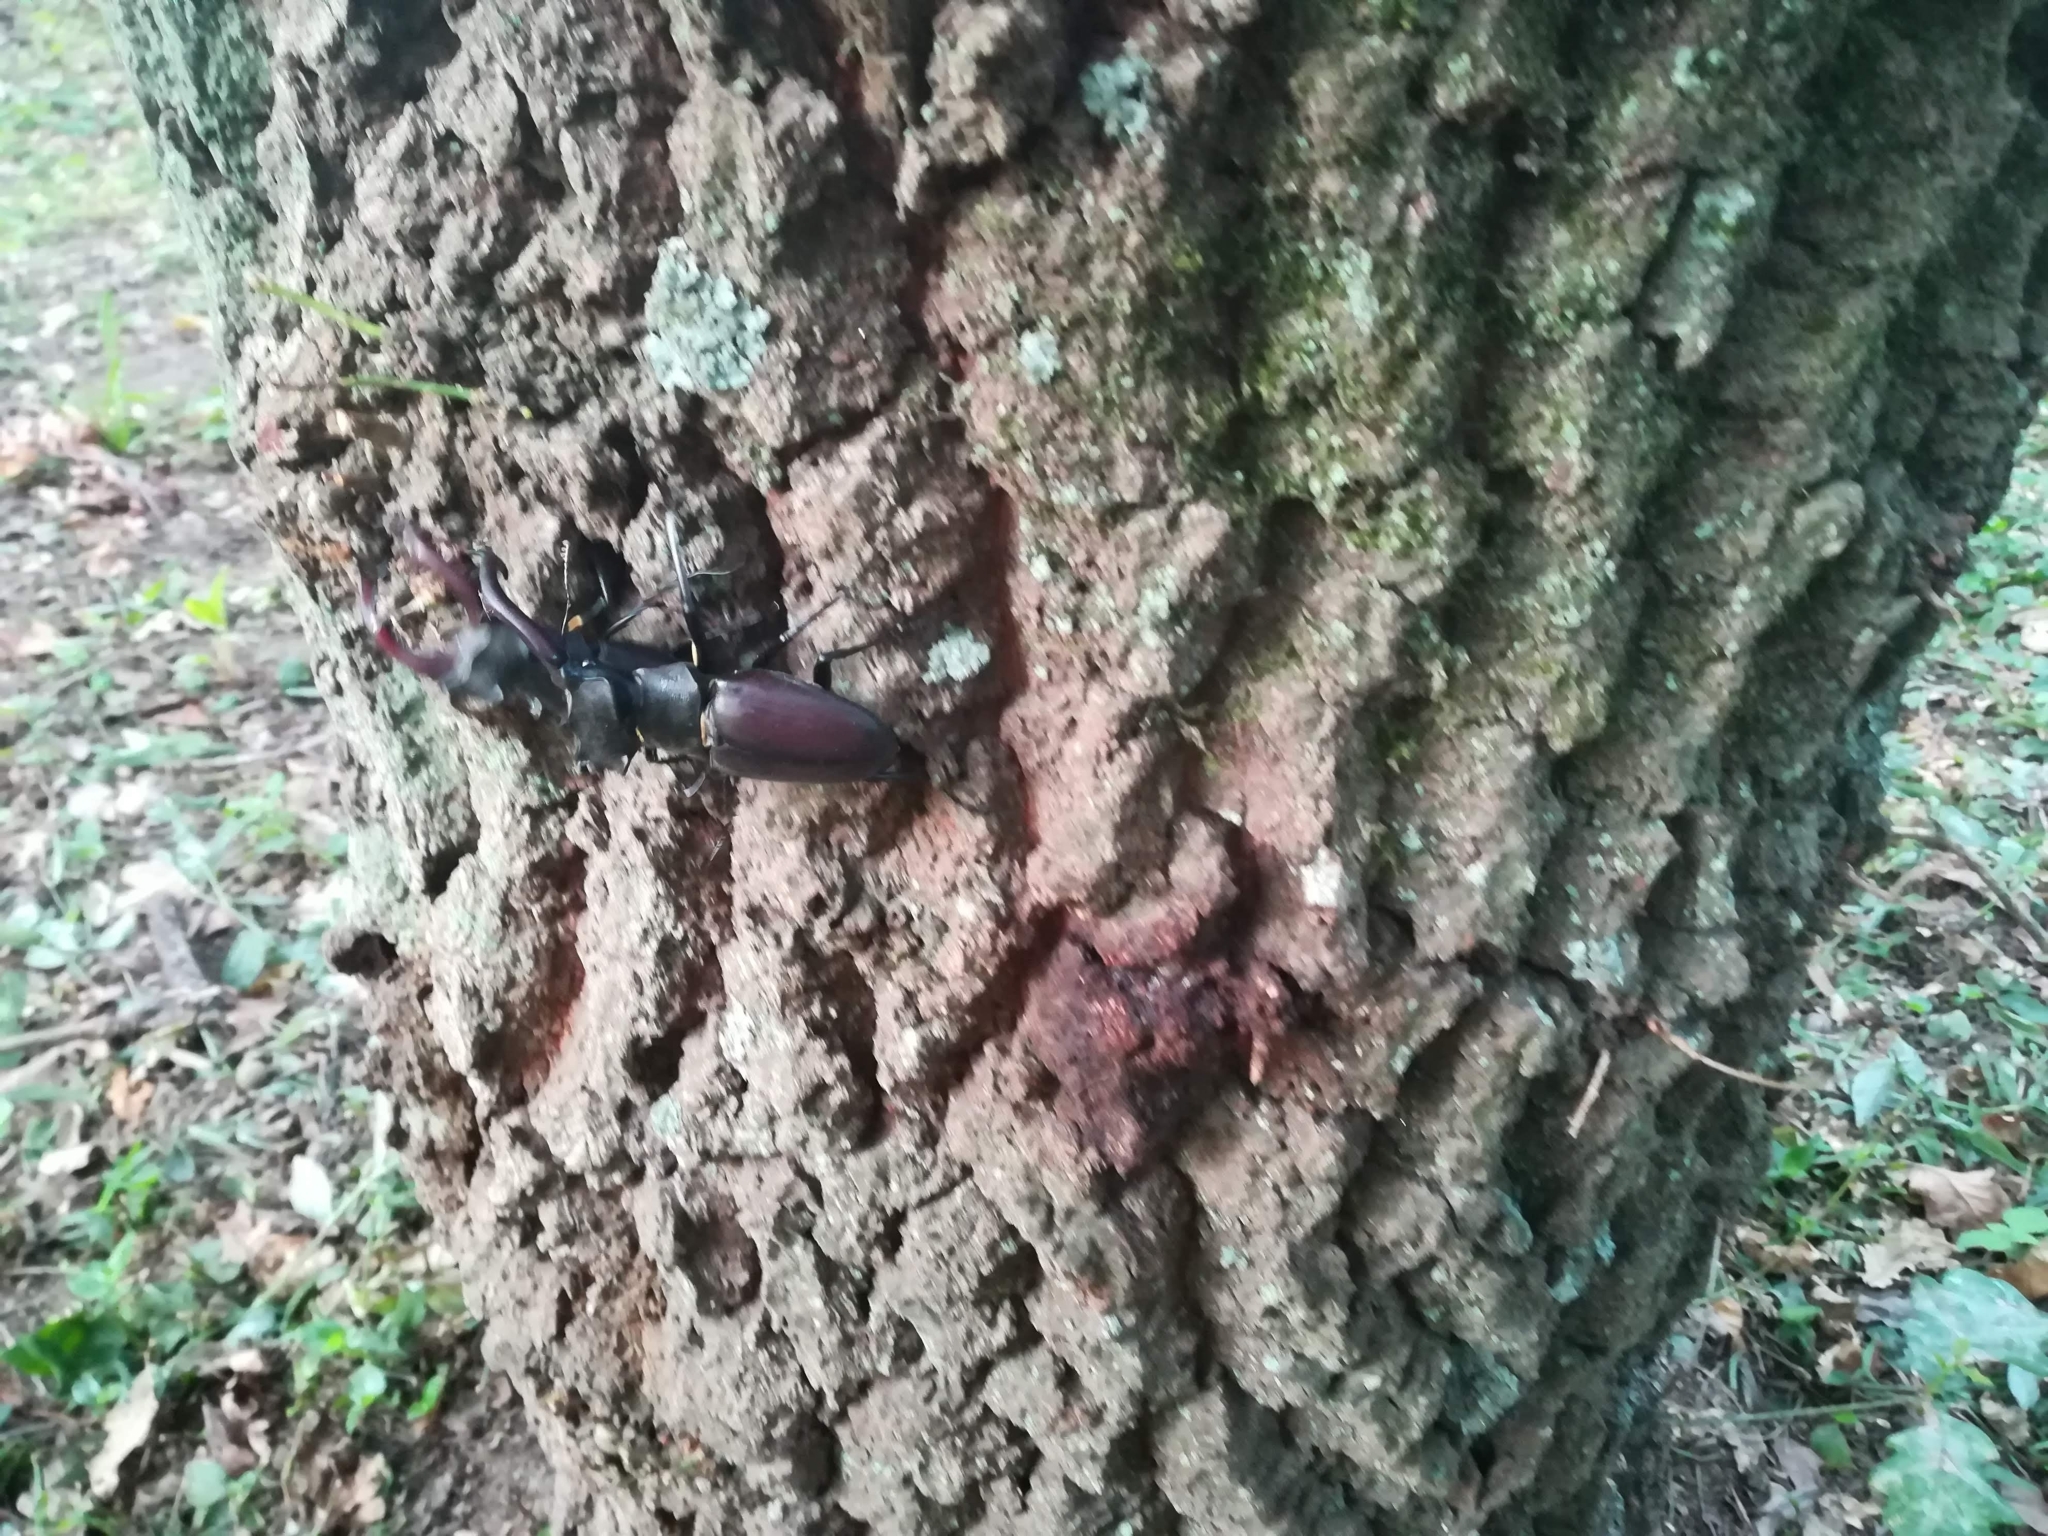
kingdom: Animalia
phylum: Arthropoda
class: Insecta
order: Coleoptera
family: Lucanidae
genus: Lucanus
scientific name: Lucanus cervus
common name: Stag beetle
